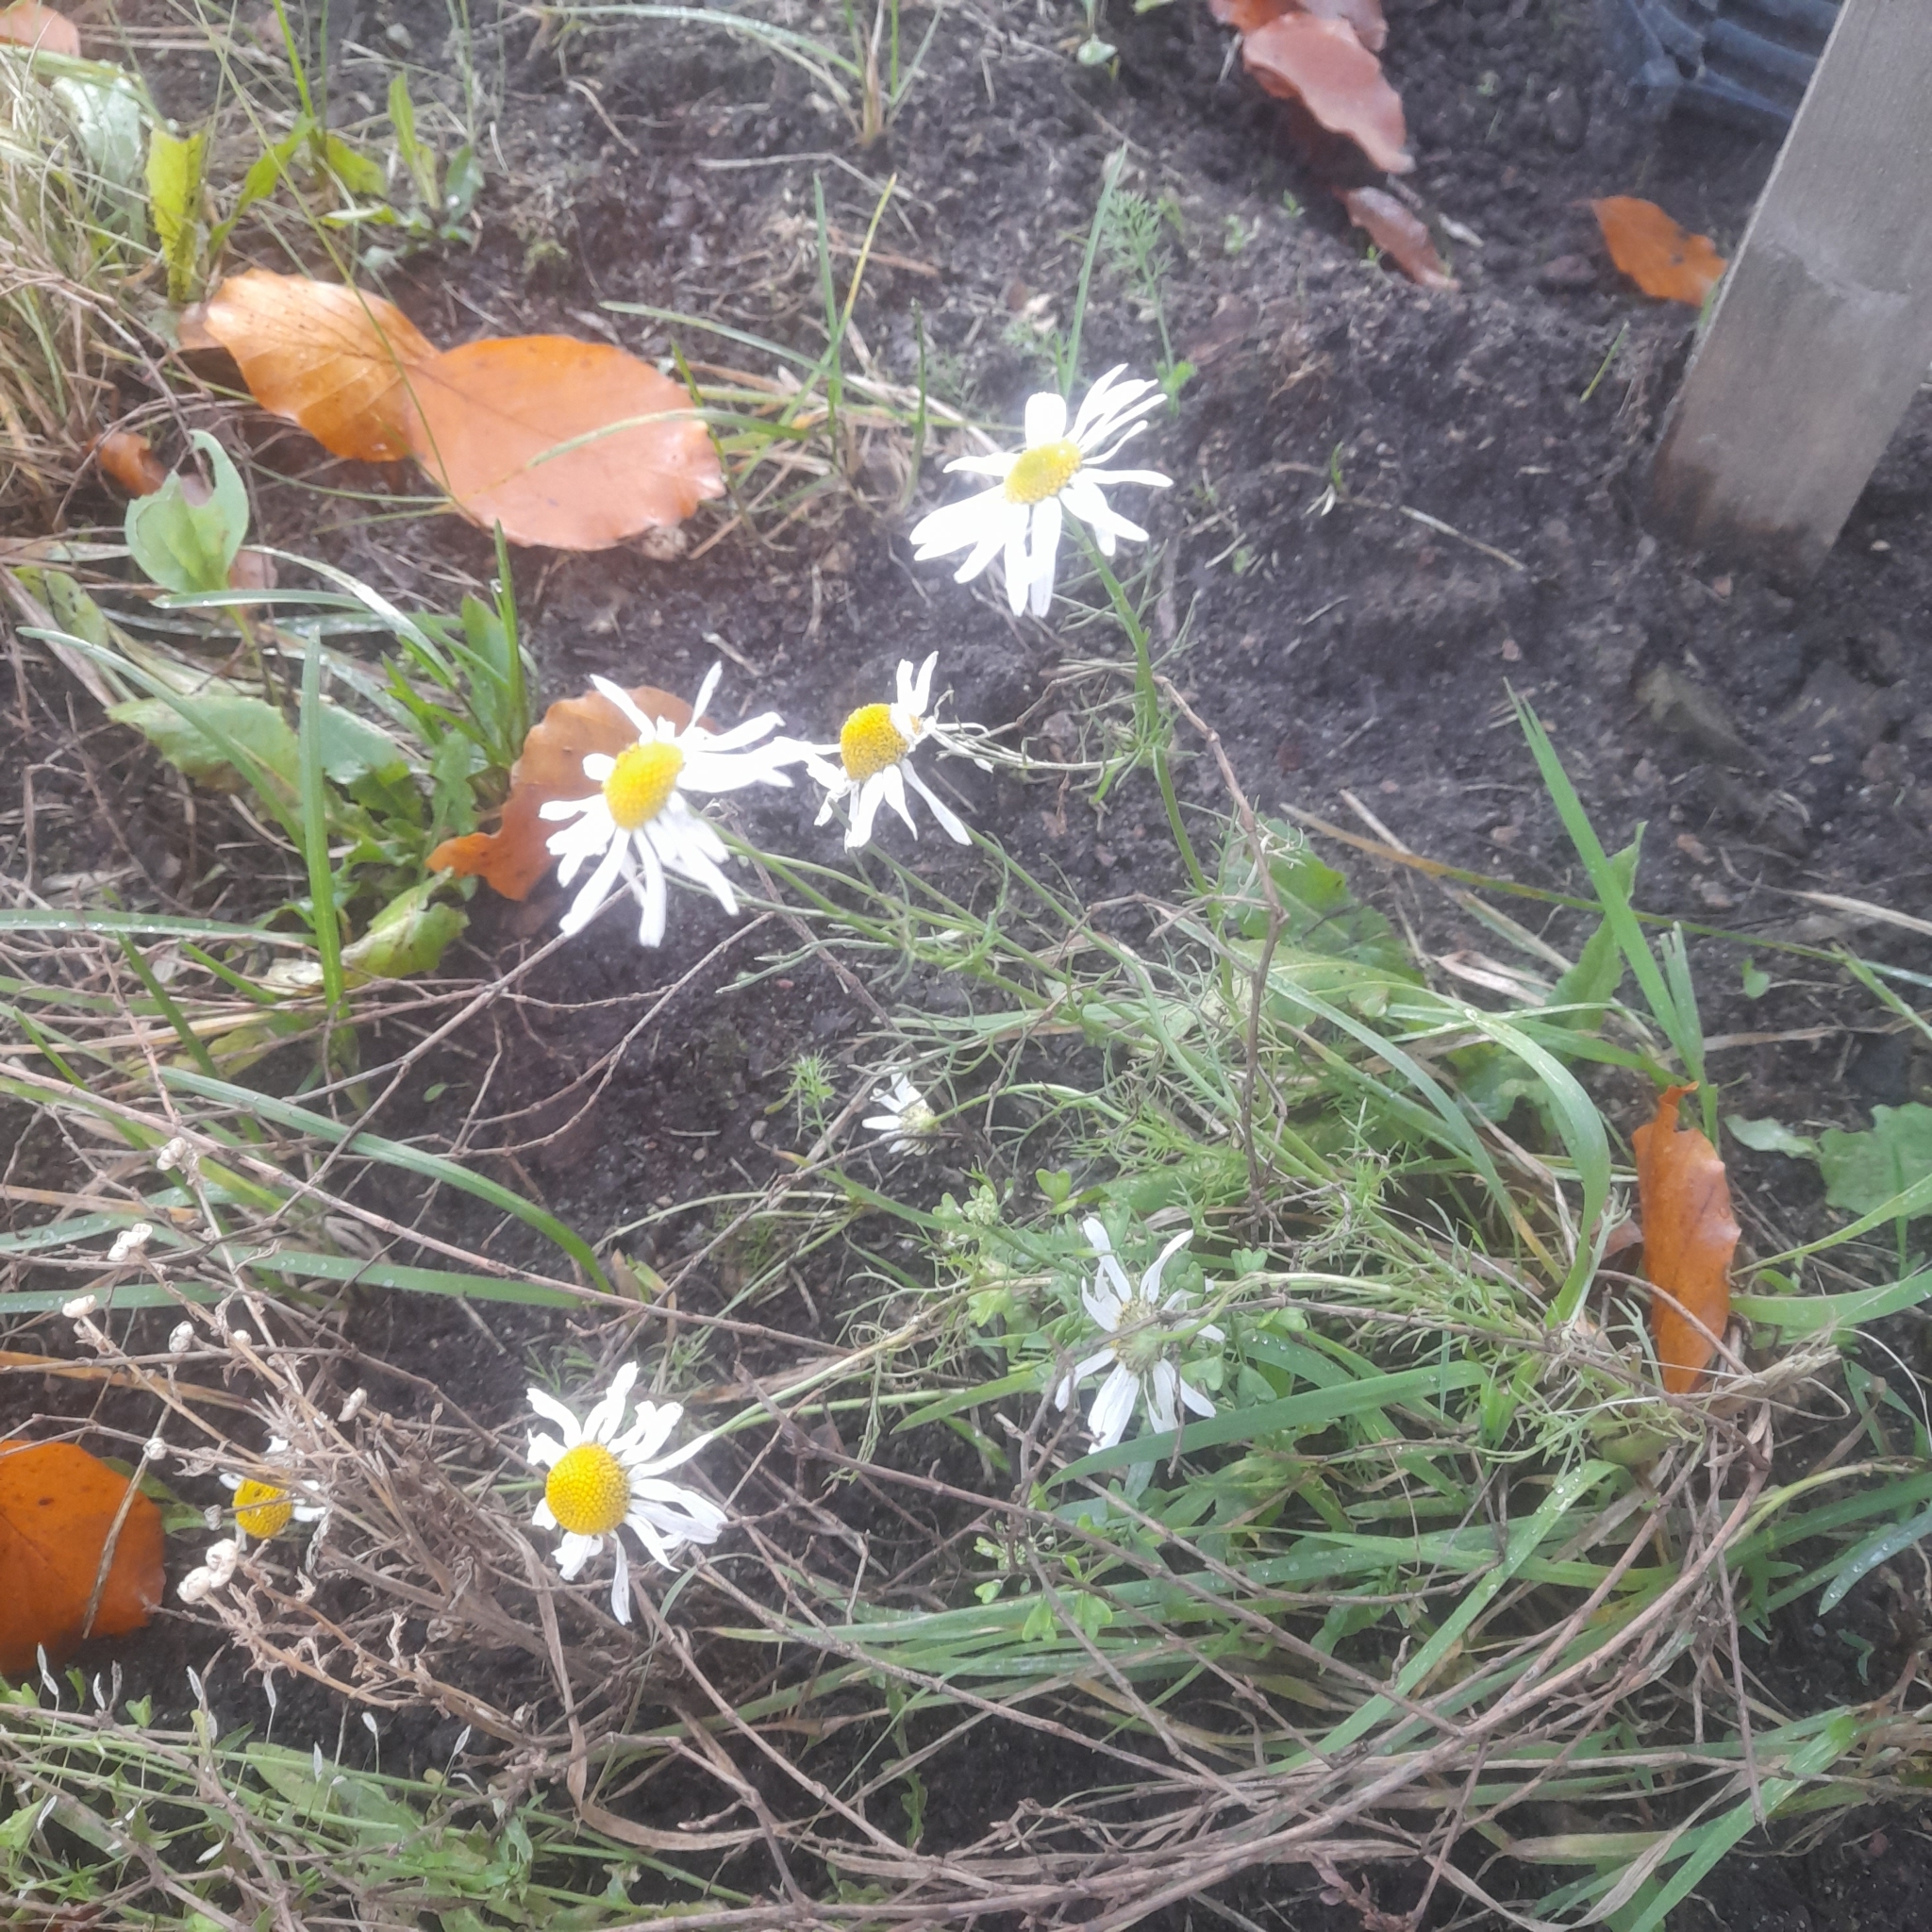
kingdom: Plantae
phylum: Tracheophyta
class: Magnoliopsida
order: Asterales
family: Asteraceae
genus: Tripleurospermum
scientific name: Tripleurospermum inodorum
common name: Scentless mayweed
